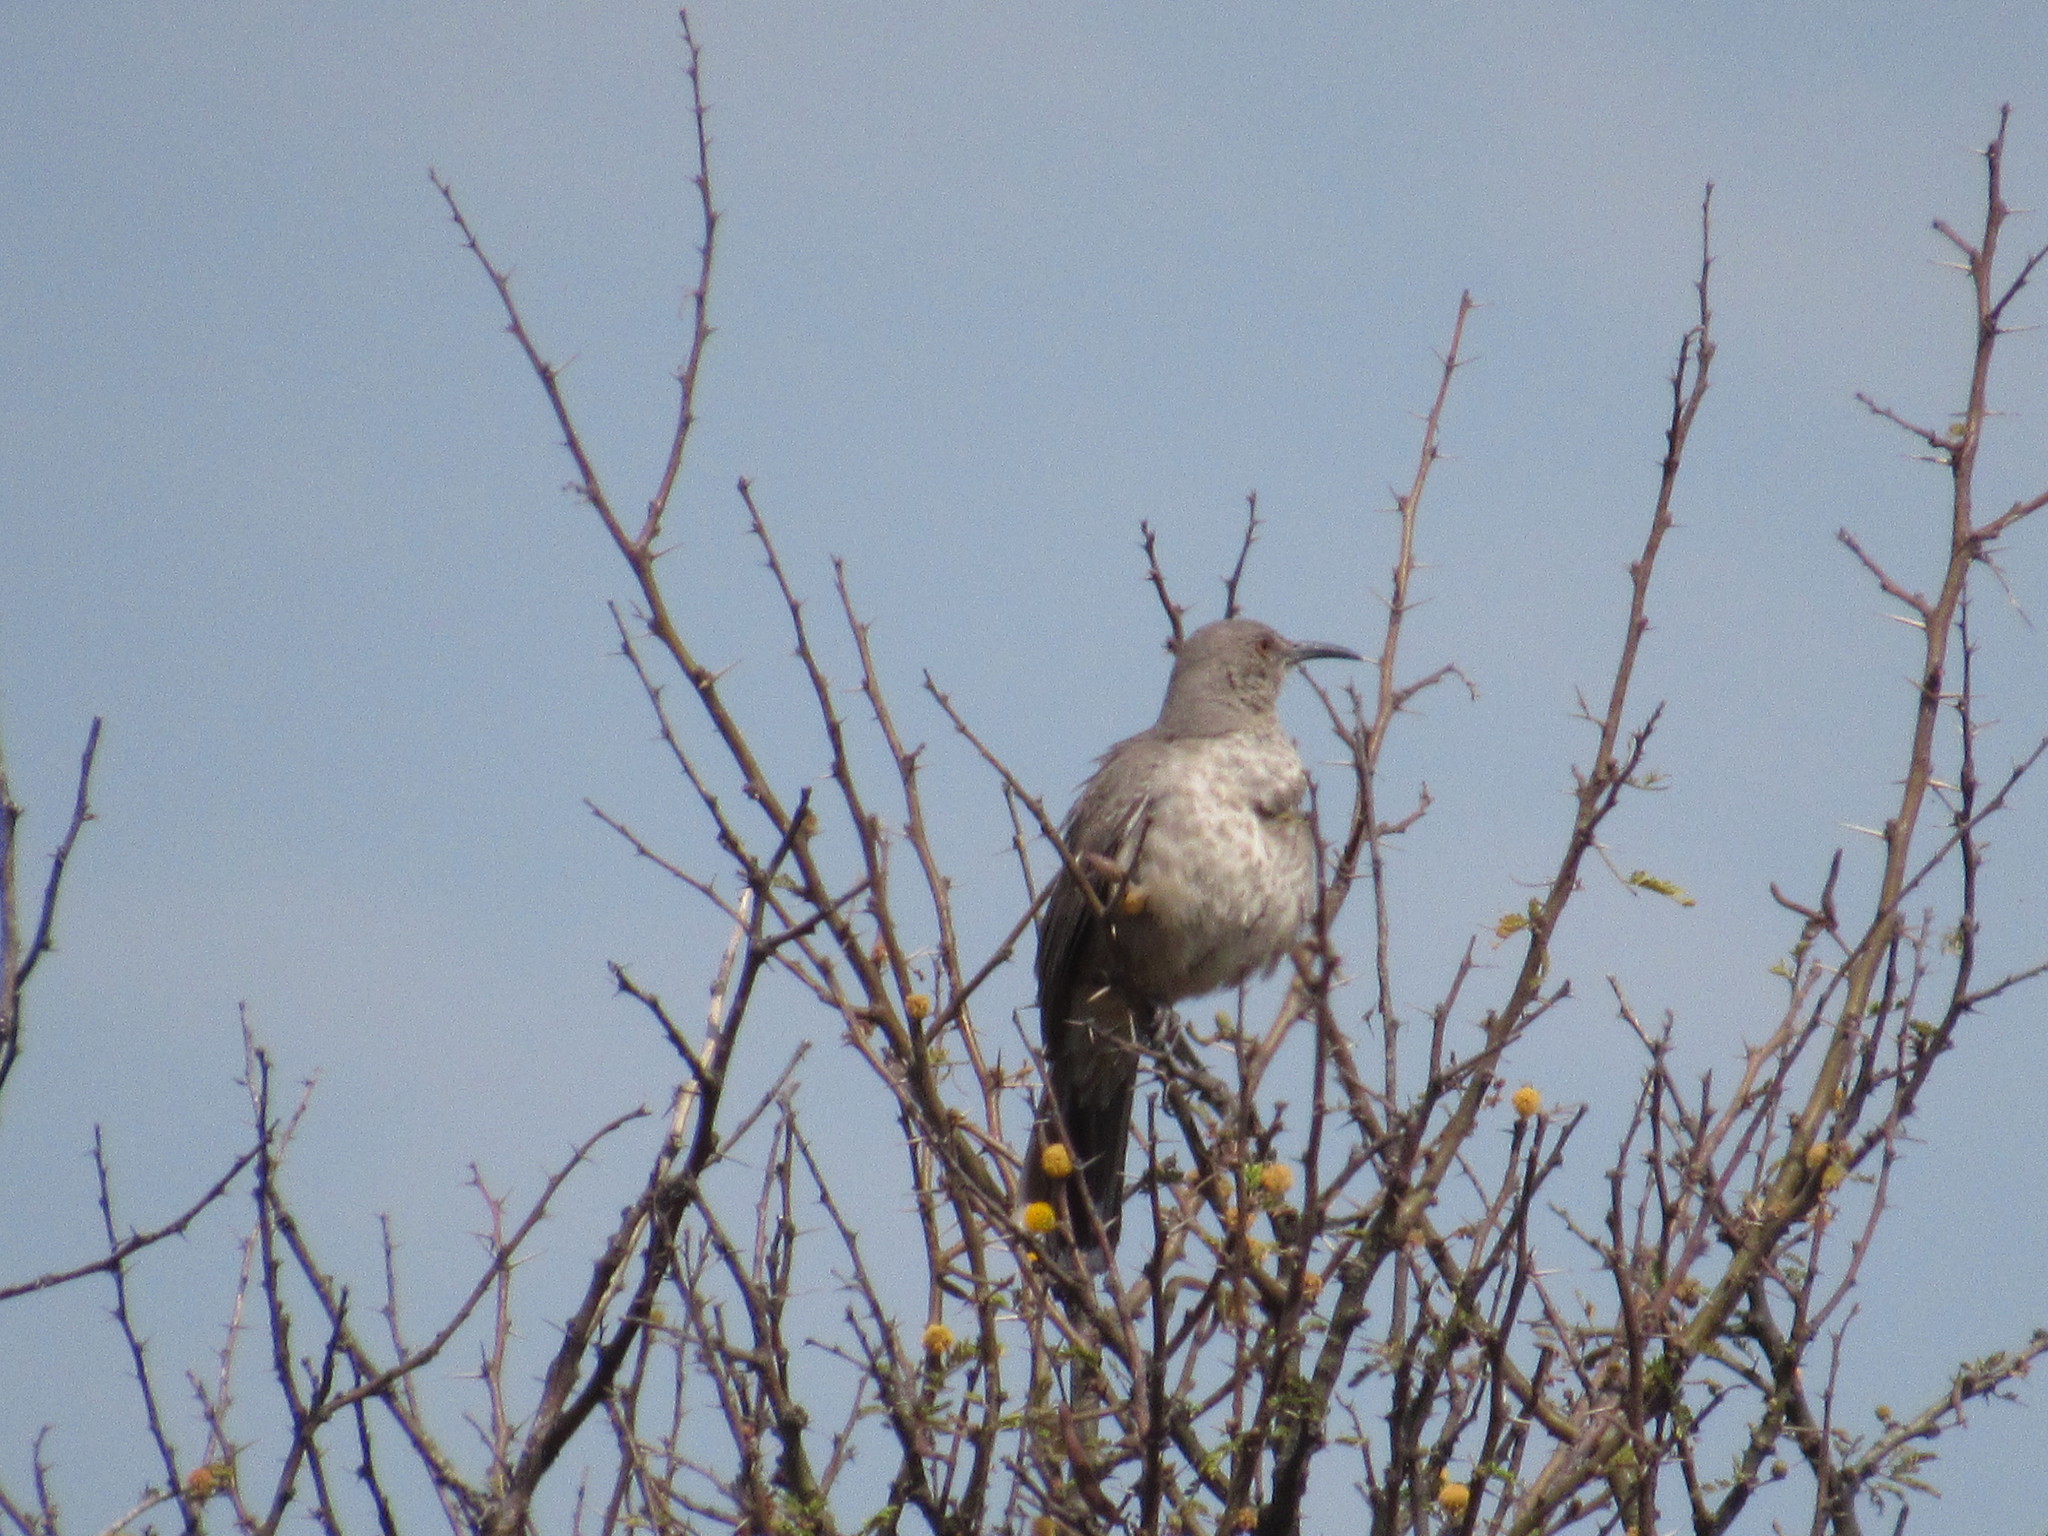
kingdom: Animalia
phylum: Chordata
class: Aves
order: Passeriformes
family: Mimidae
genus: Toxostoma
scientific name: Toxostoma curvirostre
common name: Curve-billed thrasher
